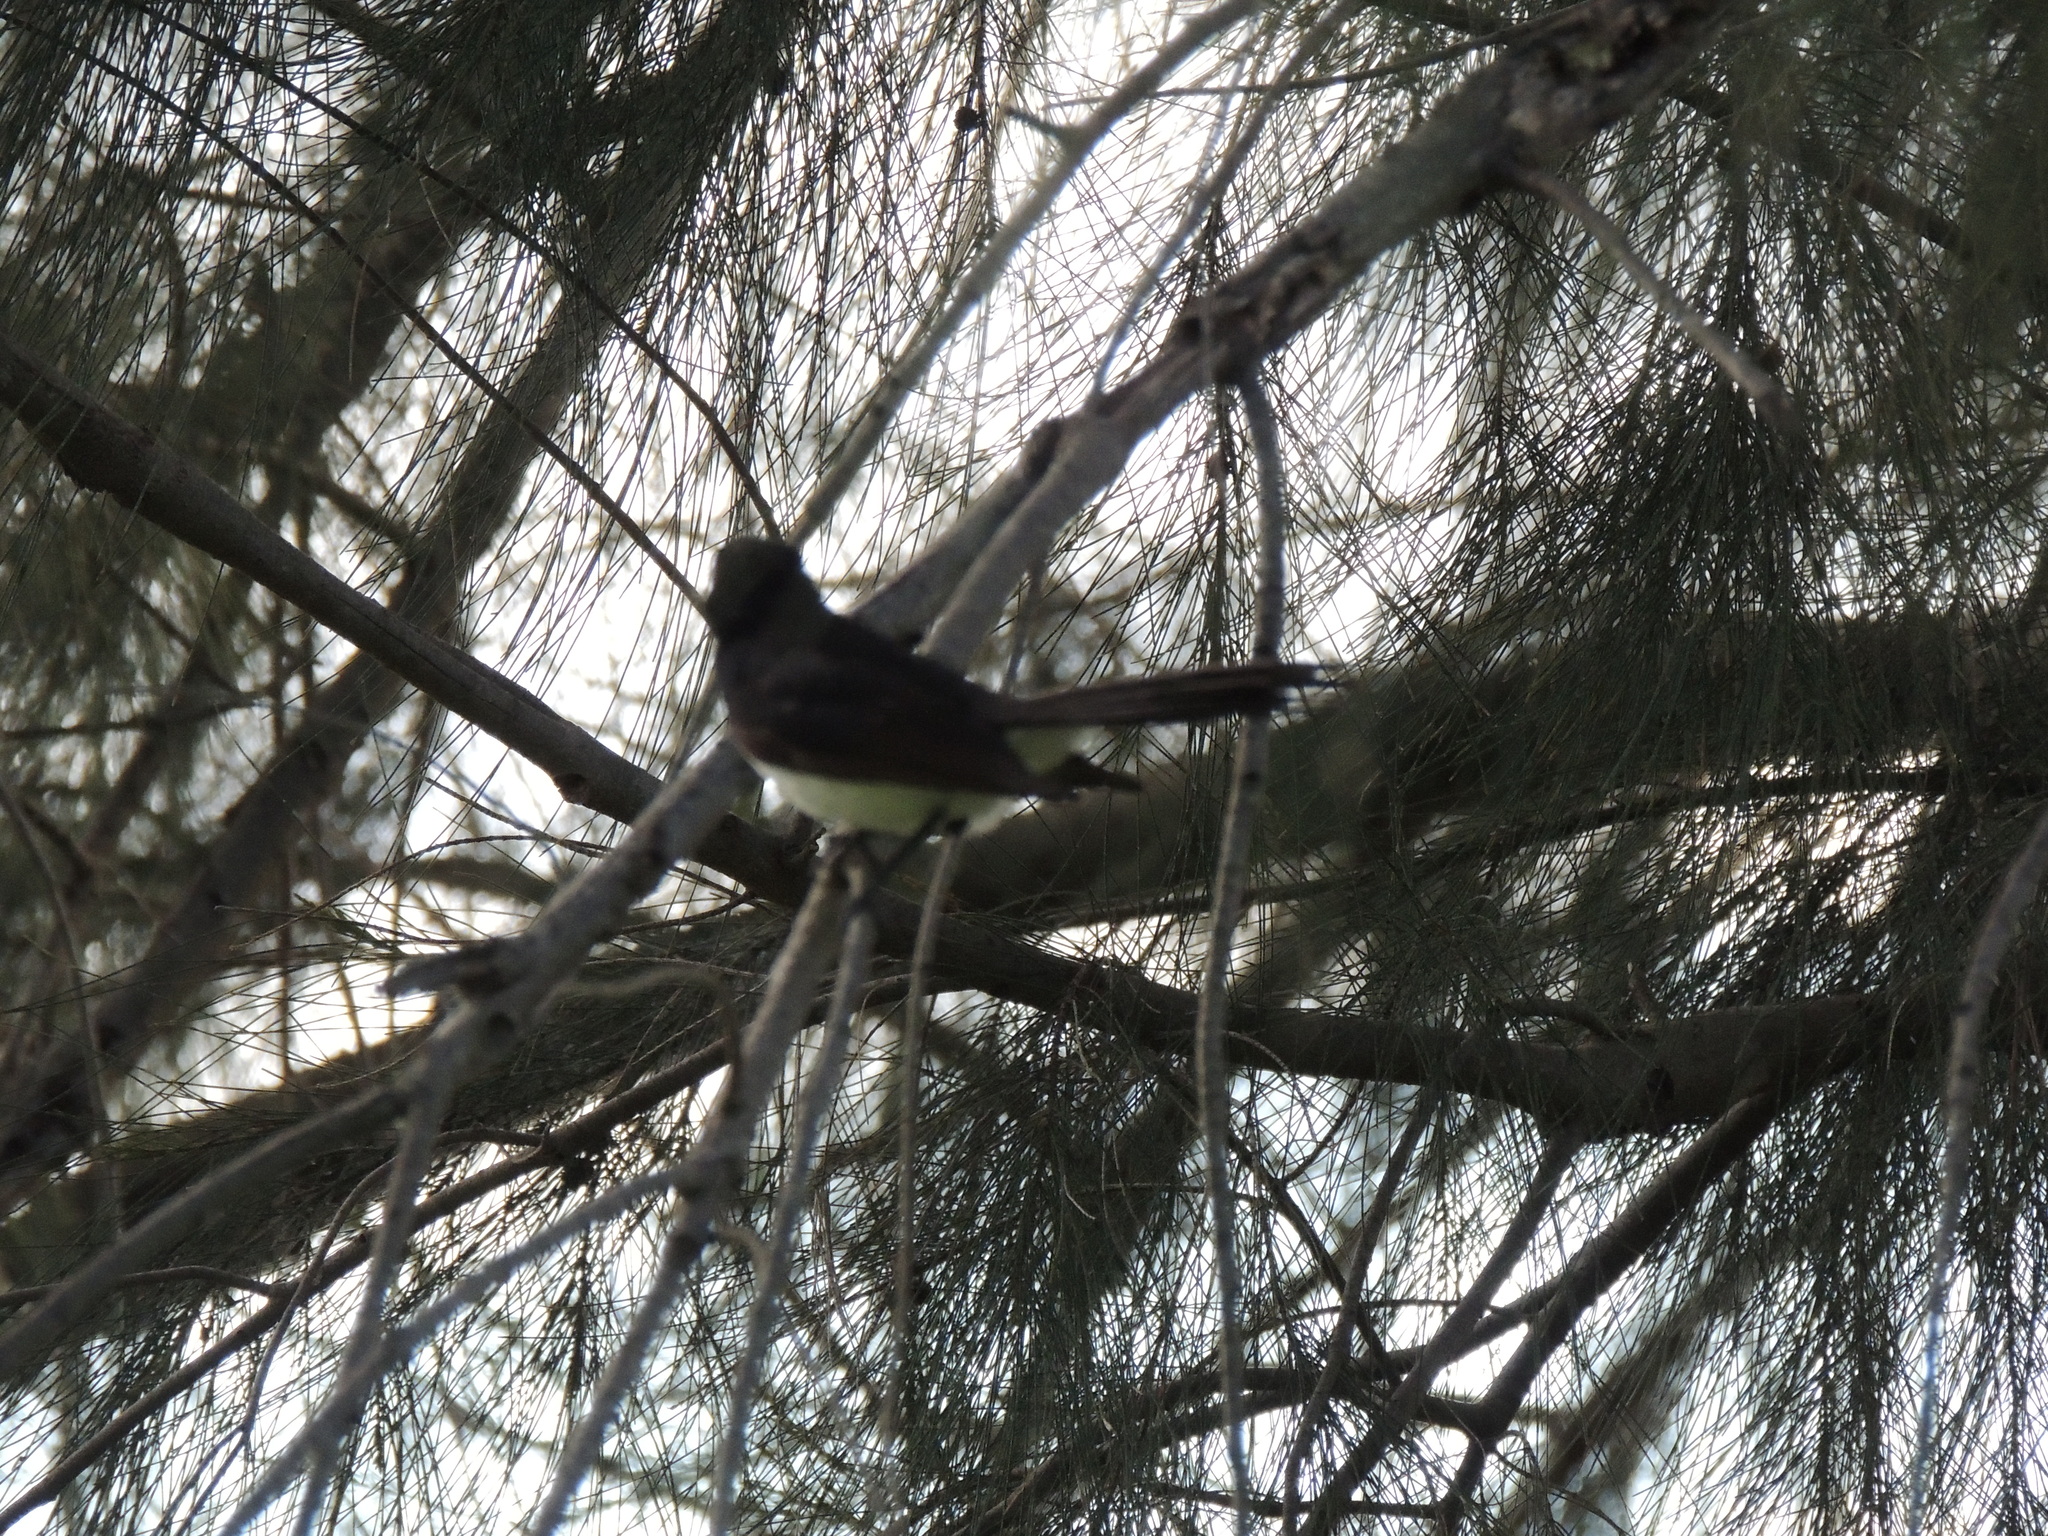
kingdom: Animalia
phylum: Chordata
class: Aves
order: Passeriformes
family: Rhipiduridae
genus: Rhipidura
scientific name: Rhipidura leucophrys
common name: Willie wagtail
